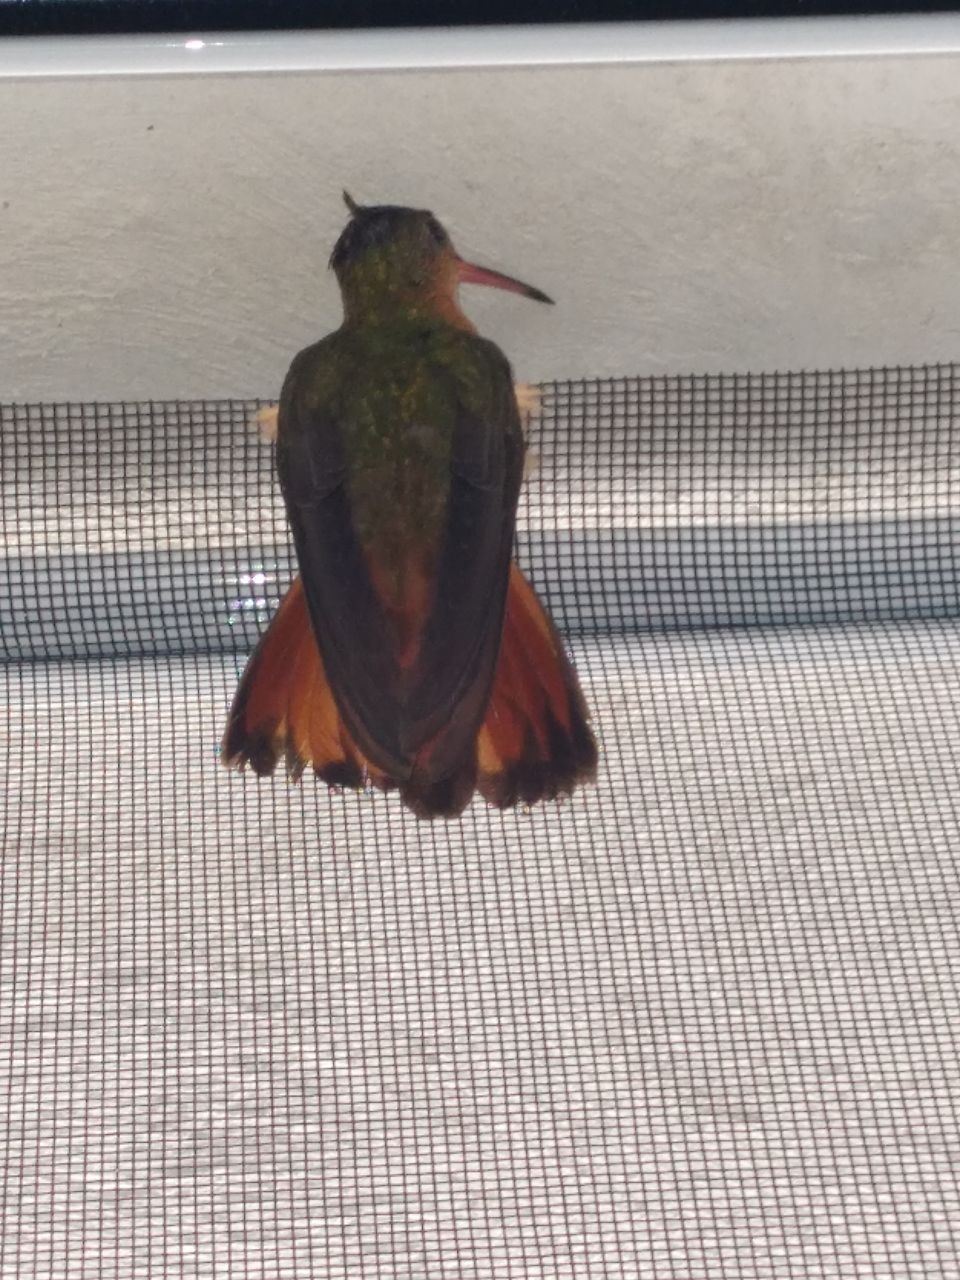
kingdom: Animalia
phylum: Chordata
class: Aves
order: Apodiformes
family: Trochilidae
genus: Amazilia
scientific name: Amazilia rutila
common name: Cinnamon hummingbird
